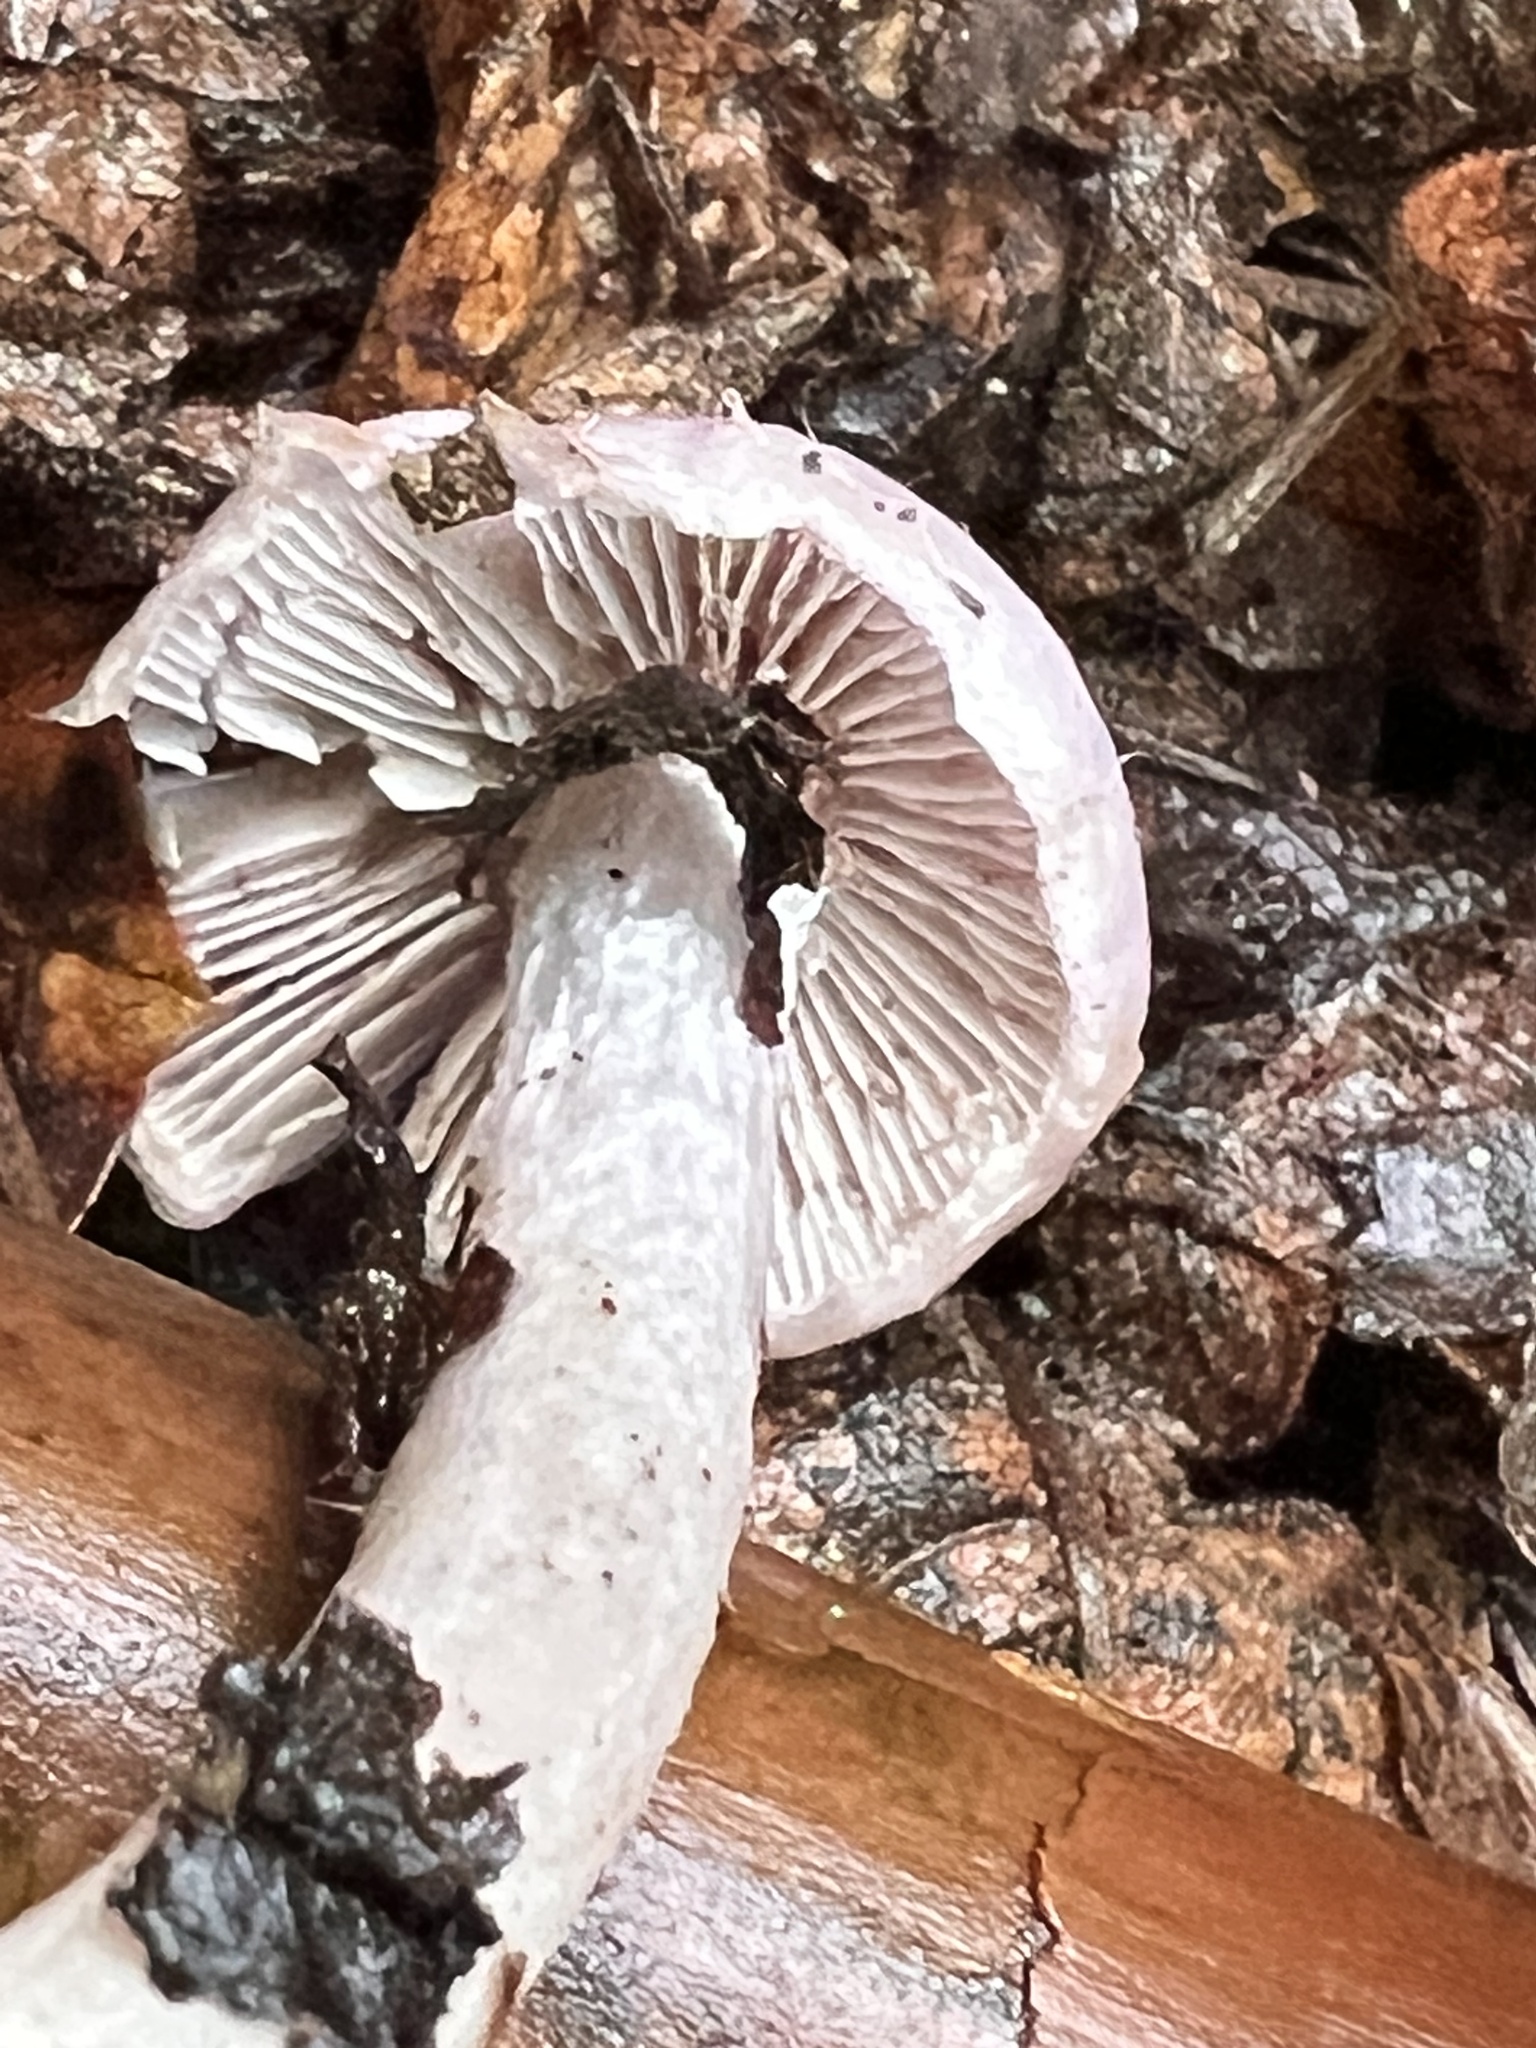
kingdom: Fungi
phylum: Basidiomycota
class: Agaricomycetes
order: Agaricales
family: Inocybaceae
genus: Inocybe
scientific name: Inocybe ionocephala
